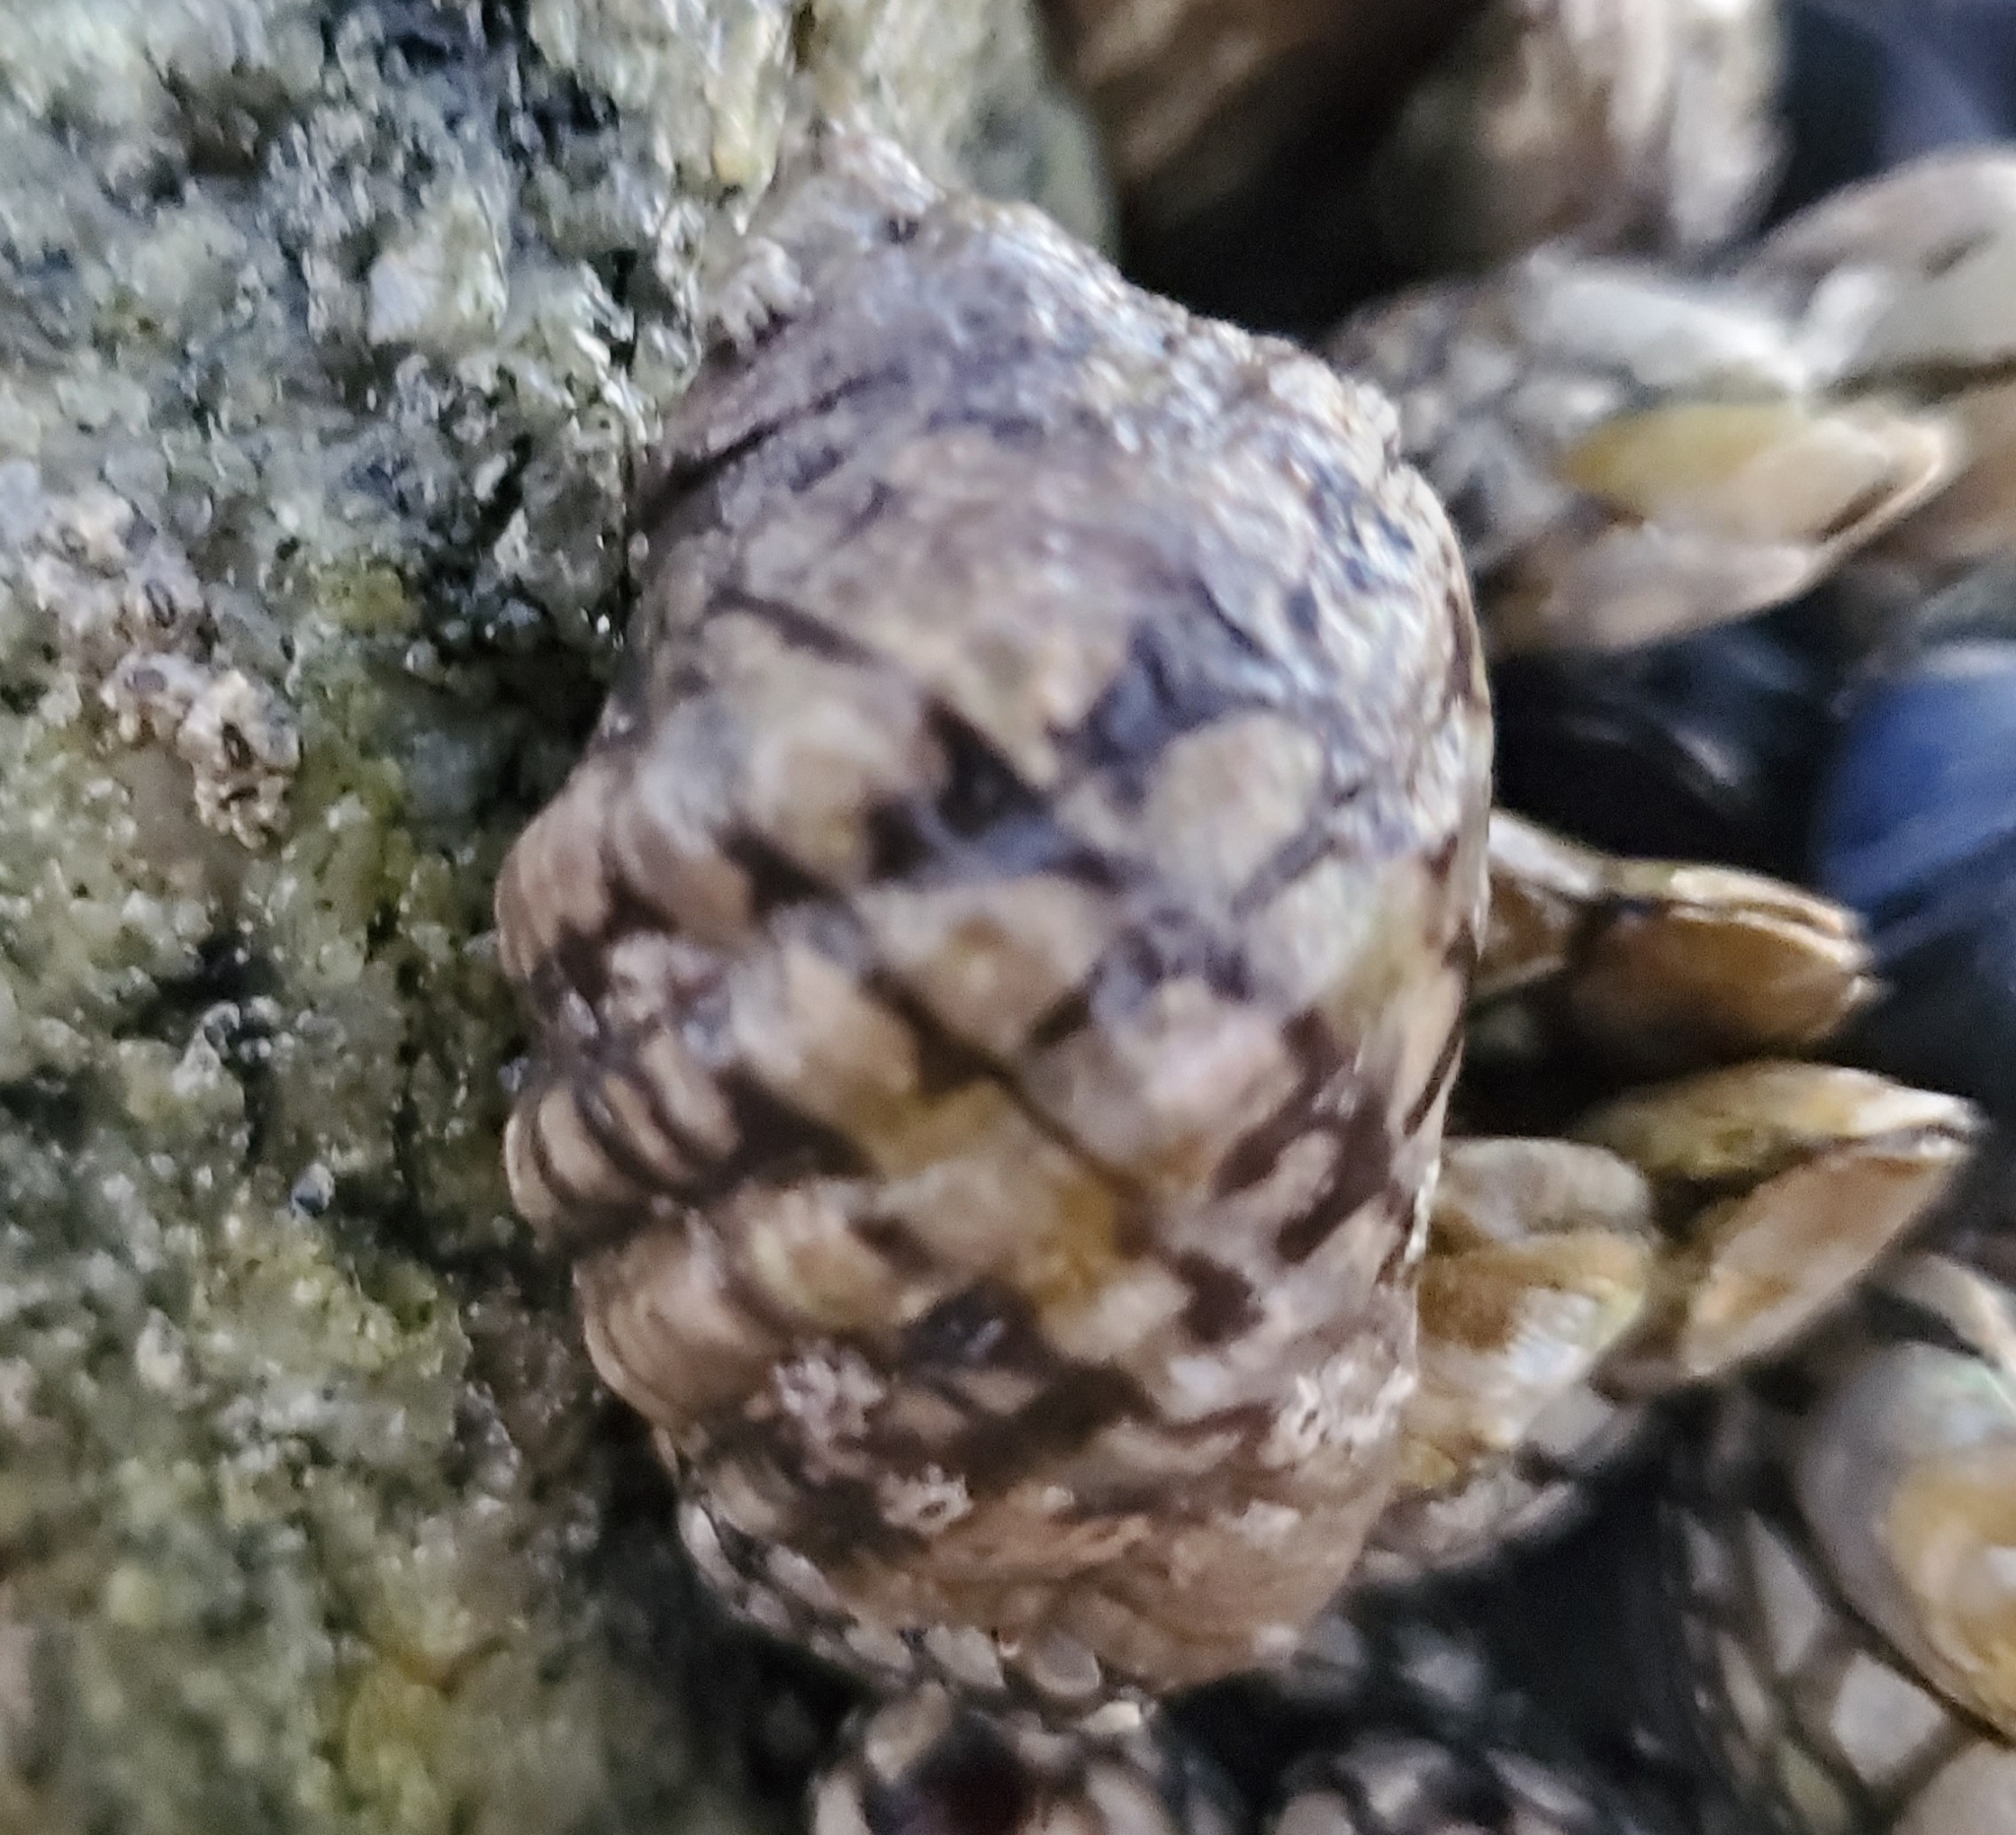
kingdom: Animalia
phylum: Mollusca
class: Gastropoda
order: Neogastropoda
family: Muricidae
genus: Mexacanthina
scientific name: Mexacanthina lugubris
